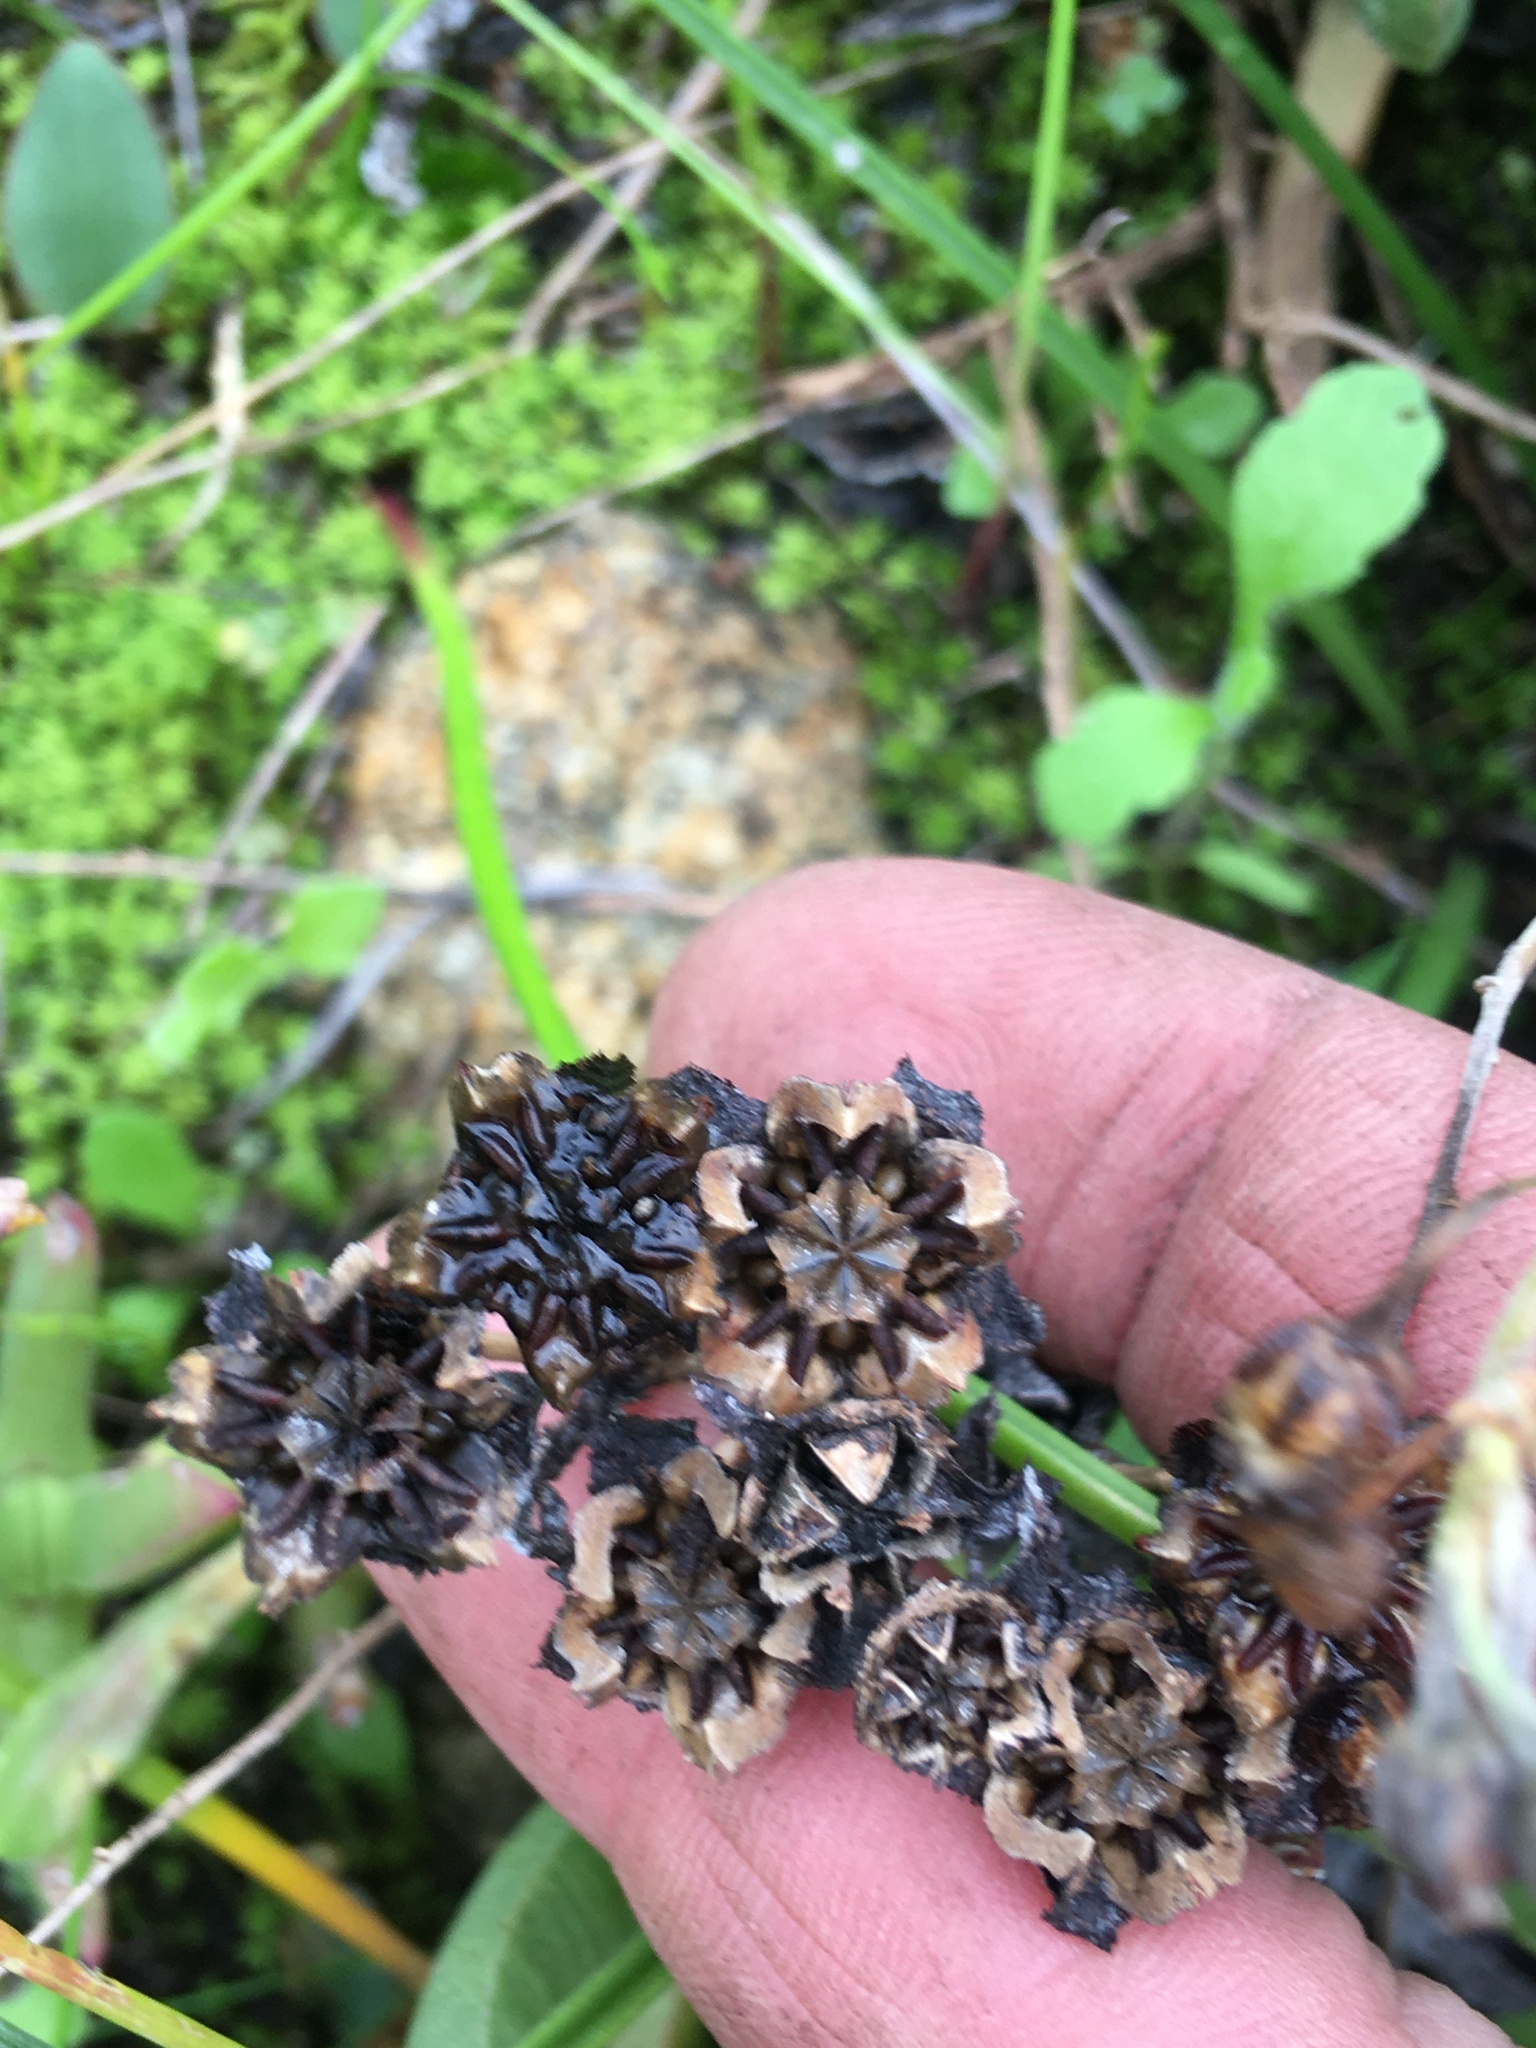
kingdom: Plantae
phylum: Tracheophyta
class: Magnoliopsida
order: Caryophyllales
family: Aizoaceae
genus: Ruschia
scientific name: Ruschia sarmentosa
